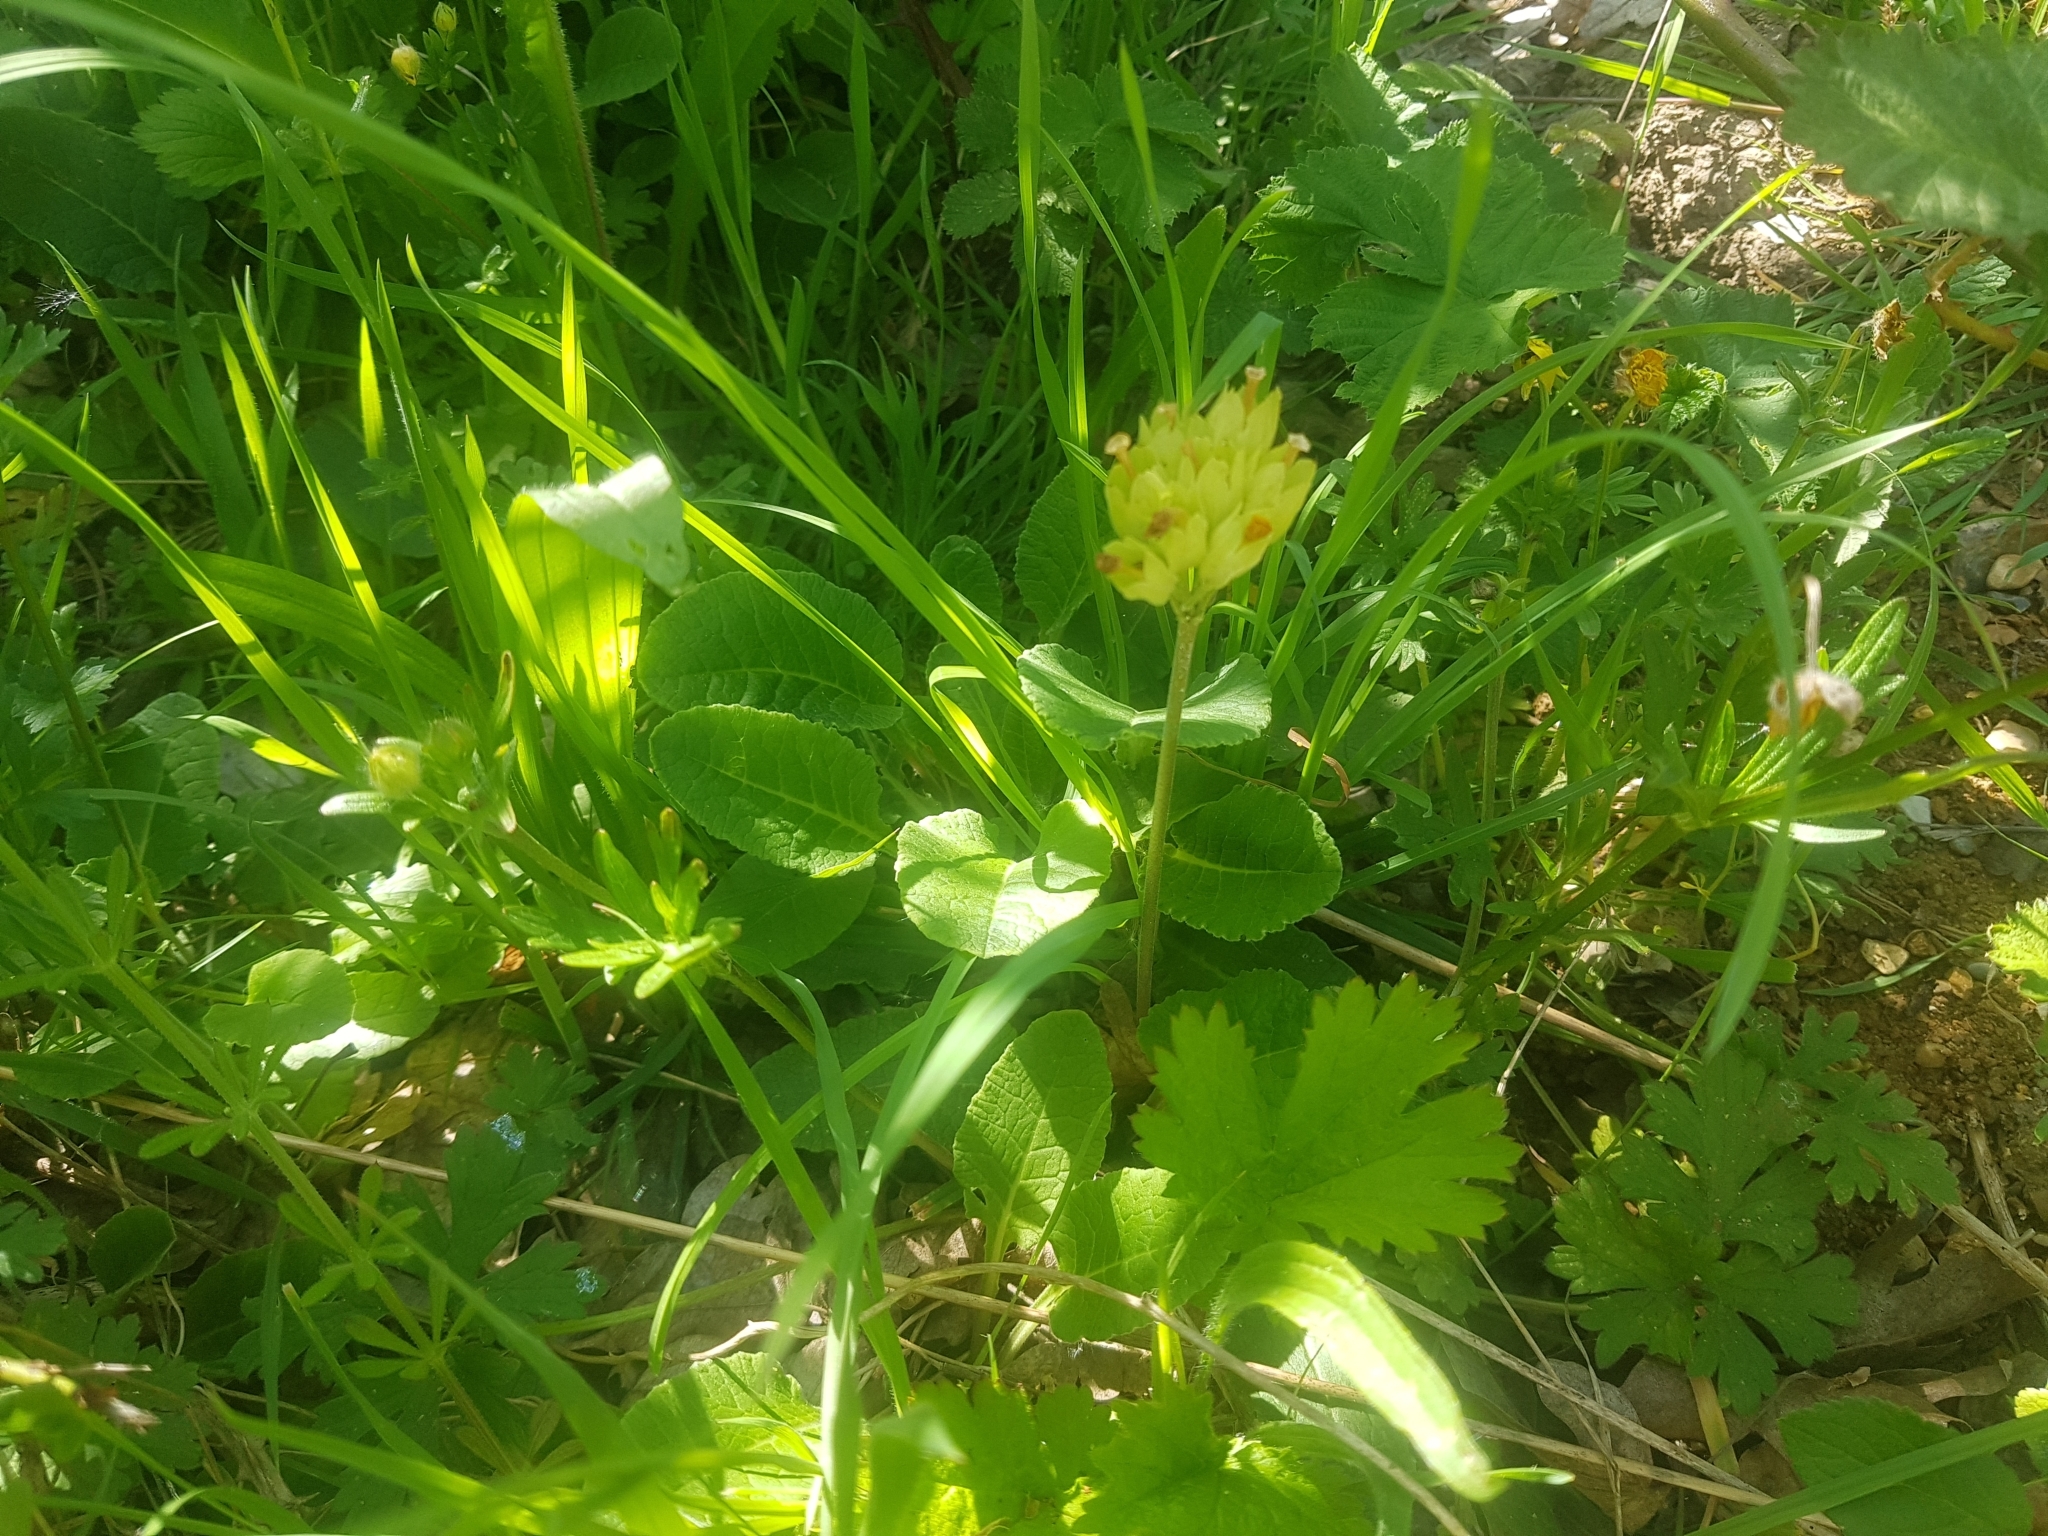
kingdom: Plantae
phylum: Tracheophyta
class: Magnoliopsida
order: Ericales
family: Primulaceae
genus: Primula
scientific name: Primula veris
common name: Cowslip
